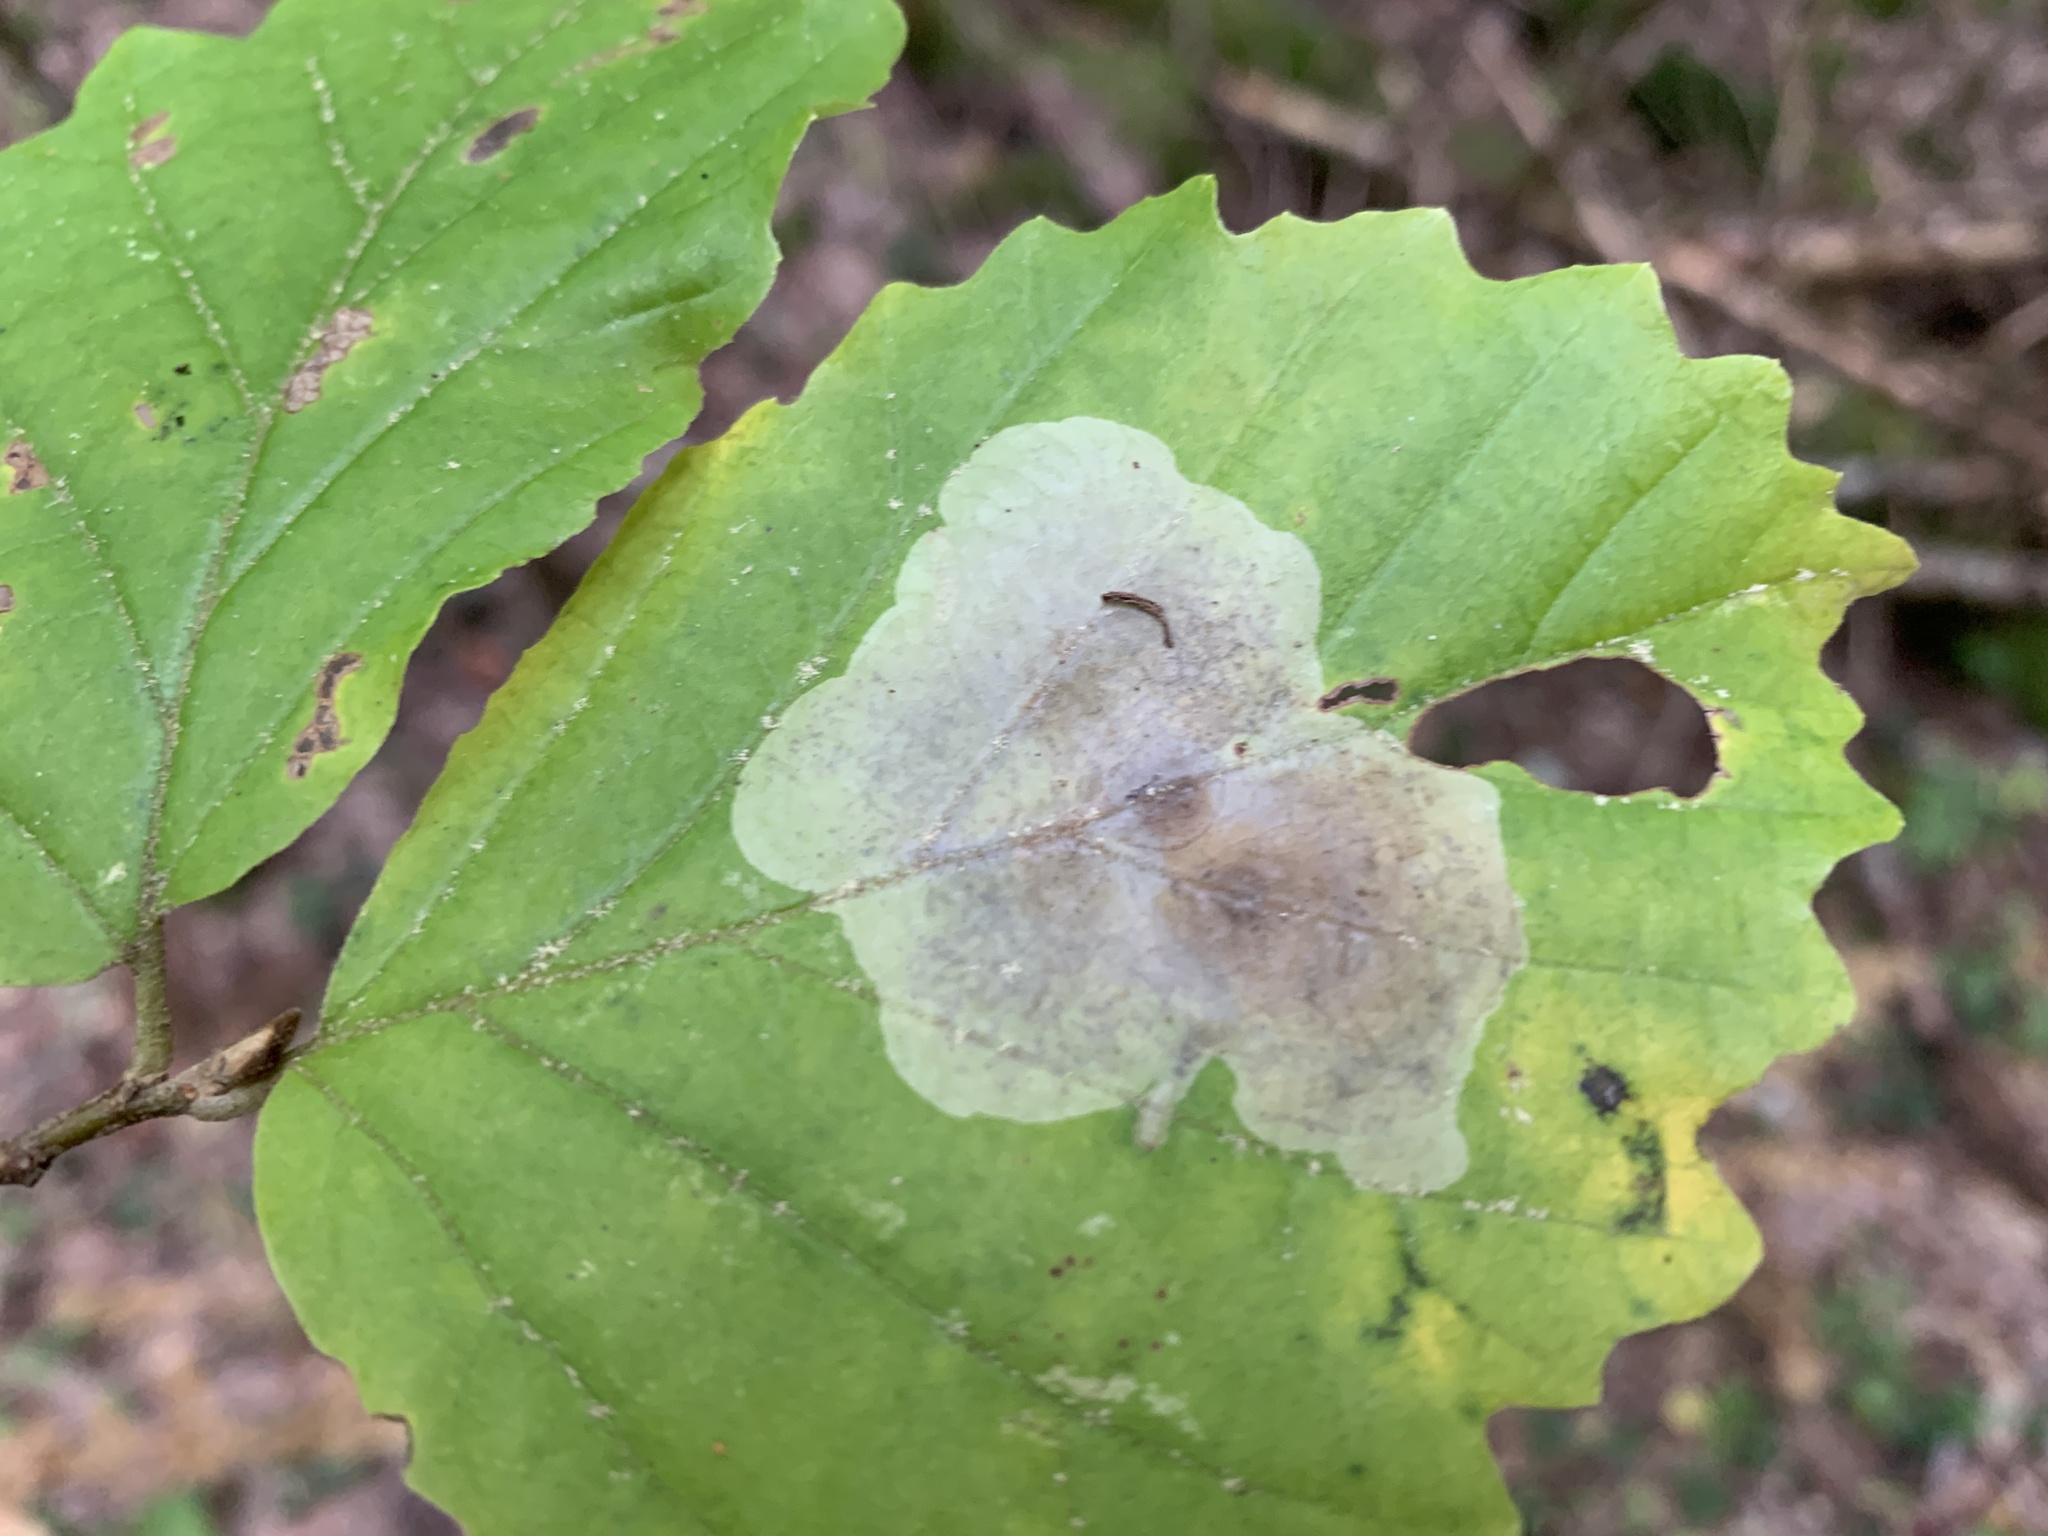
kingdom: Animalia
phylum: Arthropoda
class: Insecta
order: Lepidoptera
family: Gracillariidae
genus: Cameraria
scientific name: Cameraria hamameliella
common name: Witchhazel leafminer
